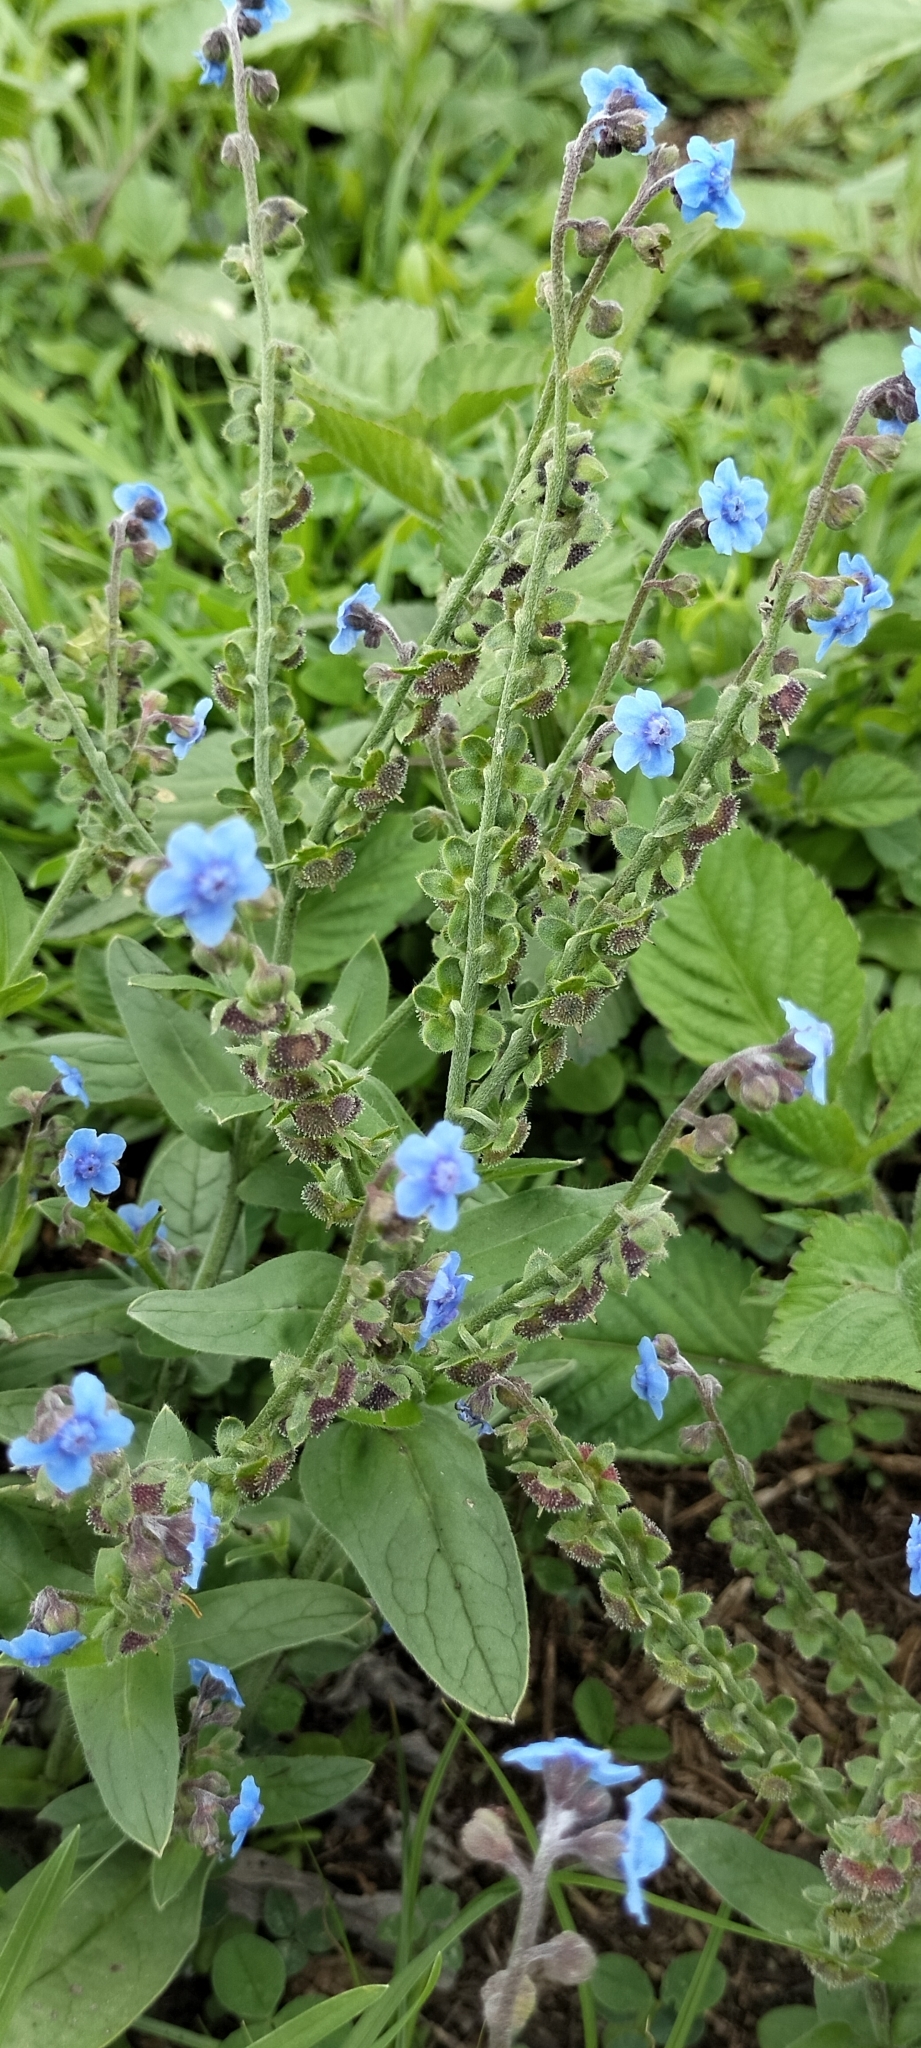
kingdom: Plantae
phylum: Tracheophyta
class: Magnoliopsida
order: Boraginales
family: Boraginaceae
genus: Cynoglossum
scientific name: Cynoglossum amabile
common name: Chinese hound's tongue
